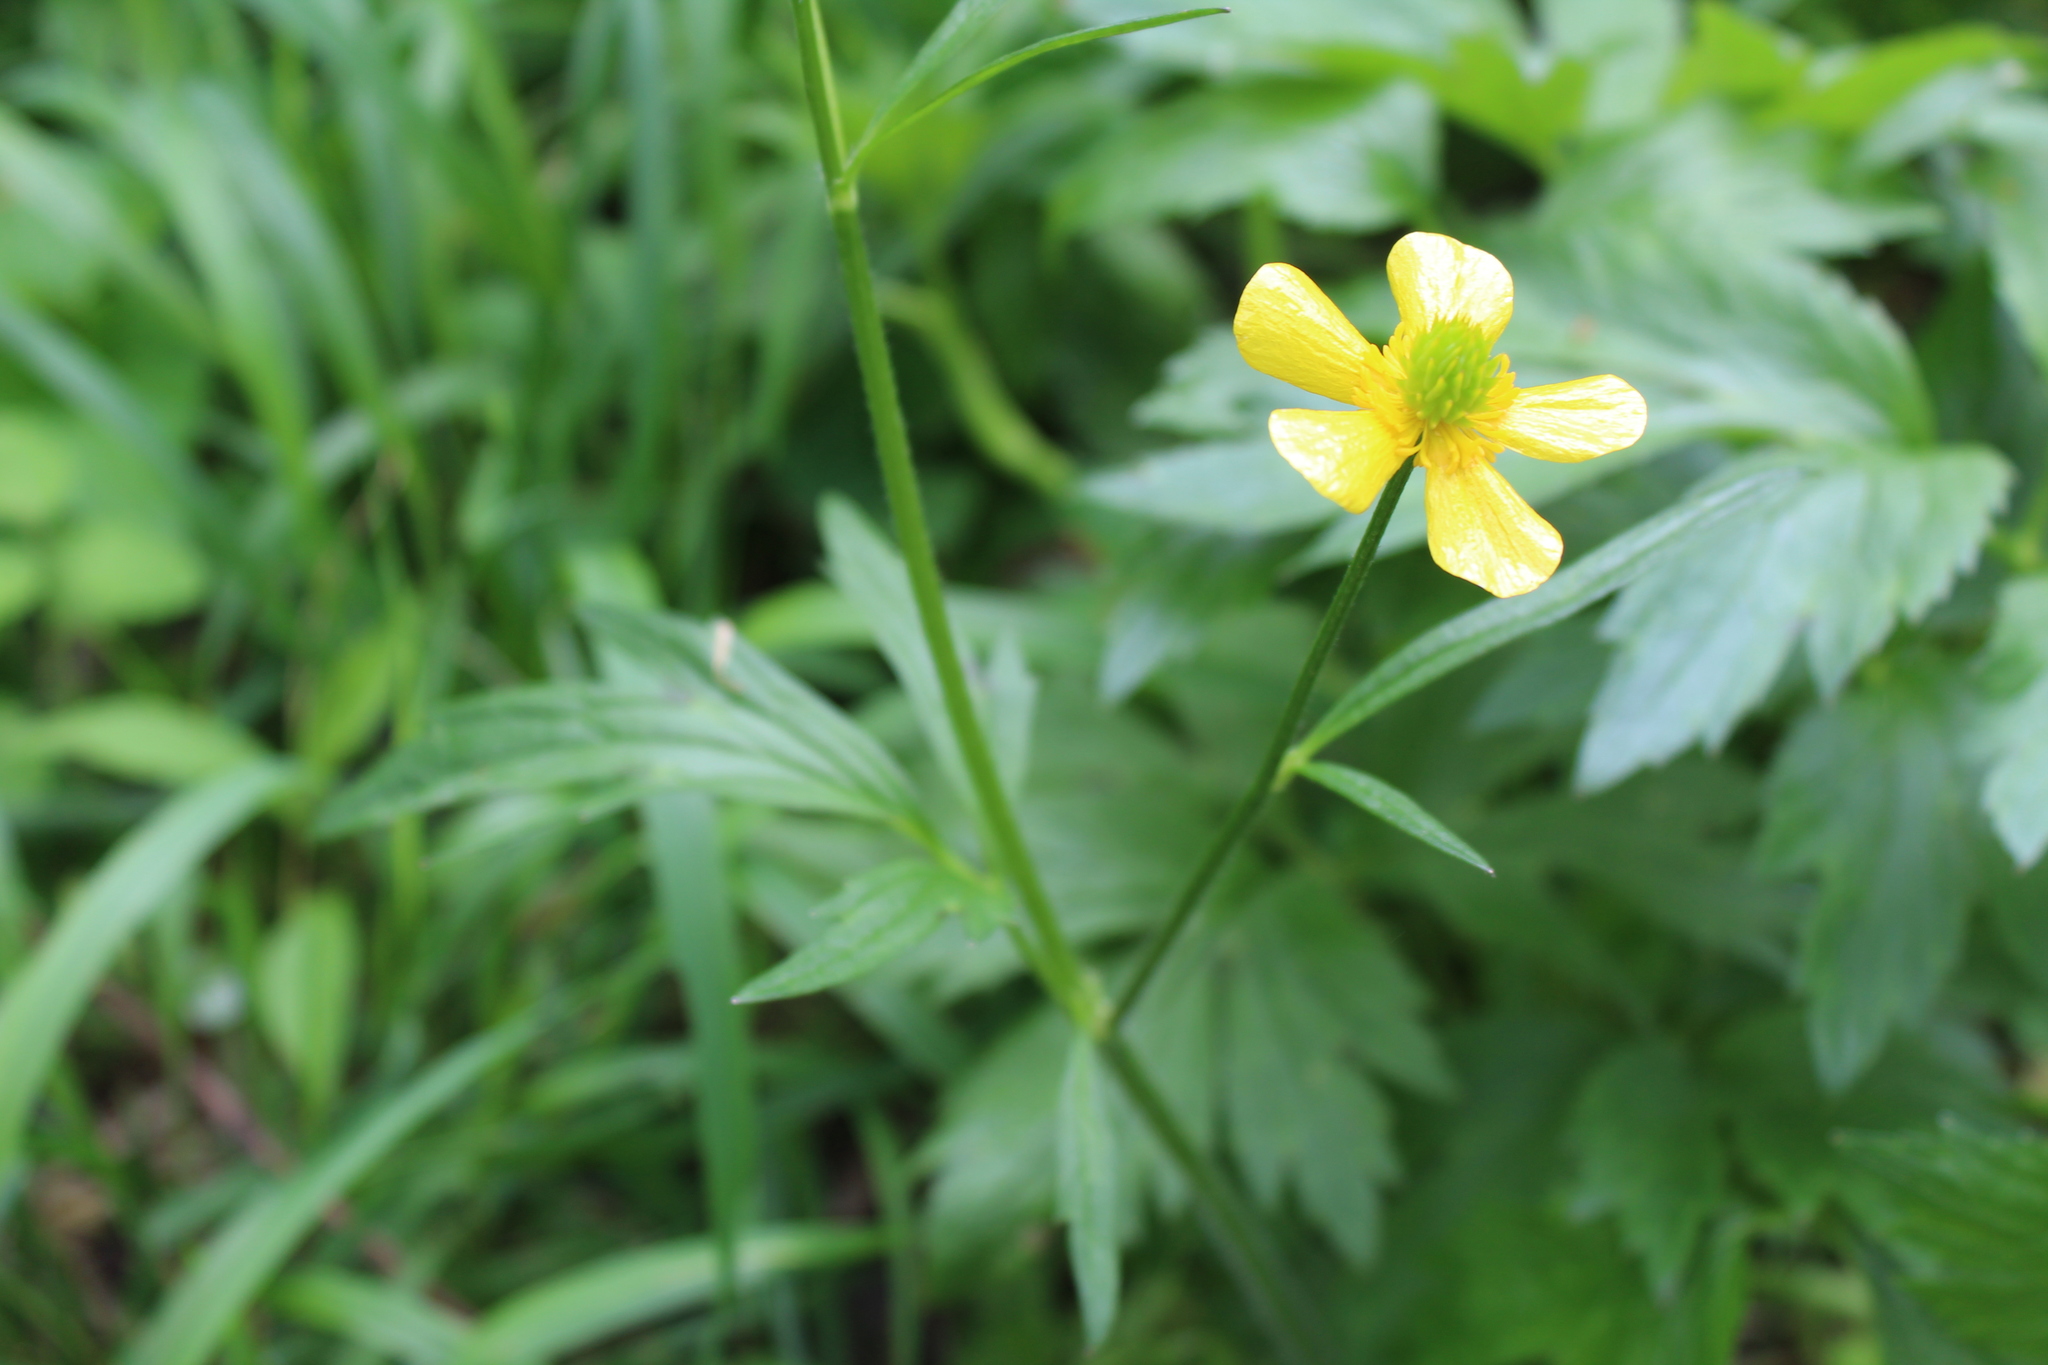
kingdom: Plantae
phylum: Tracheophyta
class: Magnoliopsida
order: Ranunculales
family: Ranunculaceae
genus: Ranunculus
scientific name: Ranunculus hispidus
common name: Bristly buttercup
